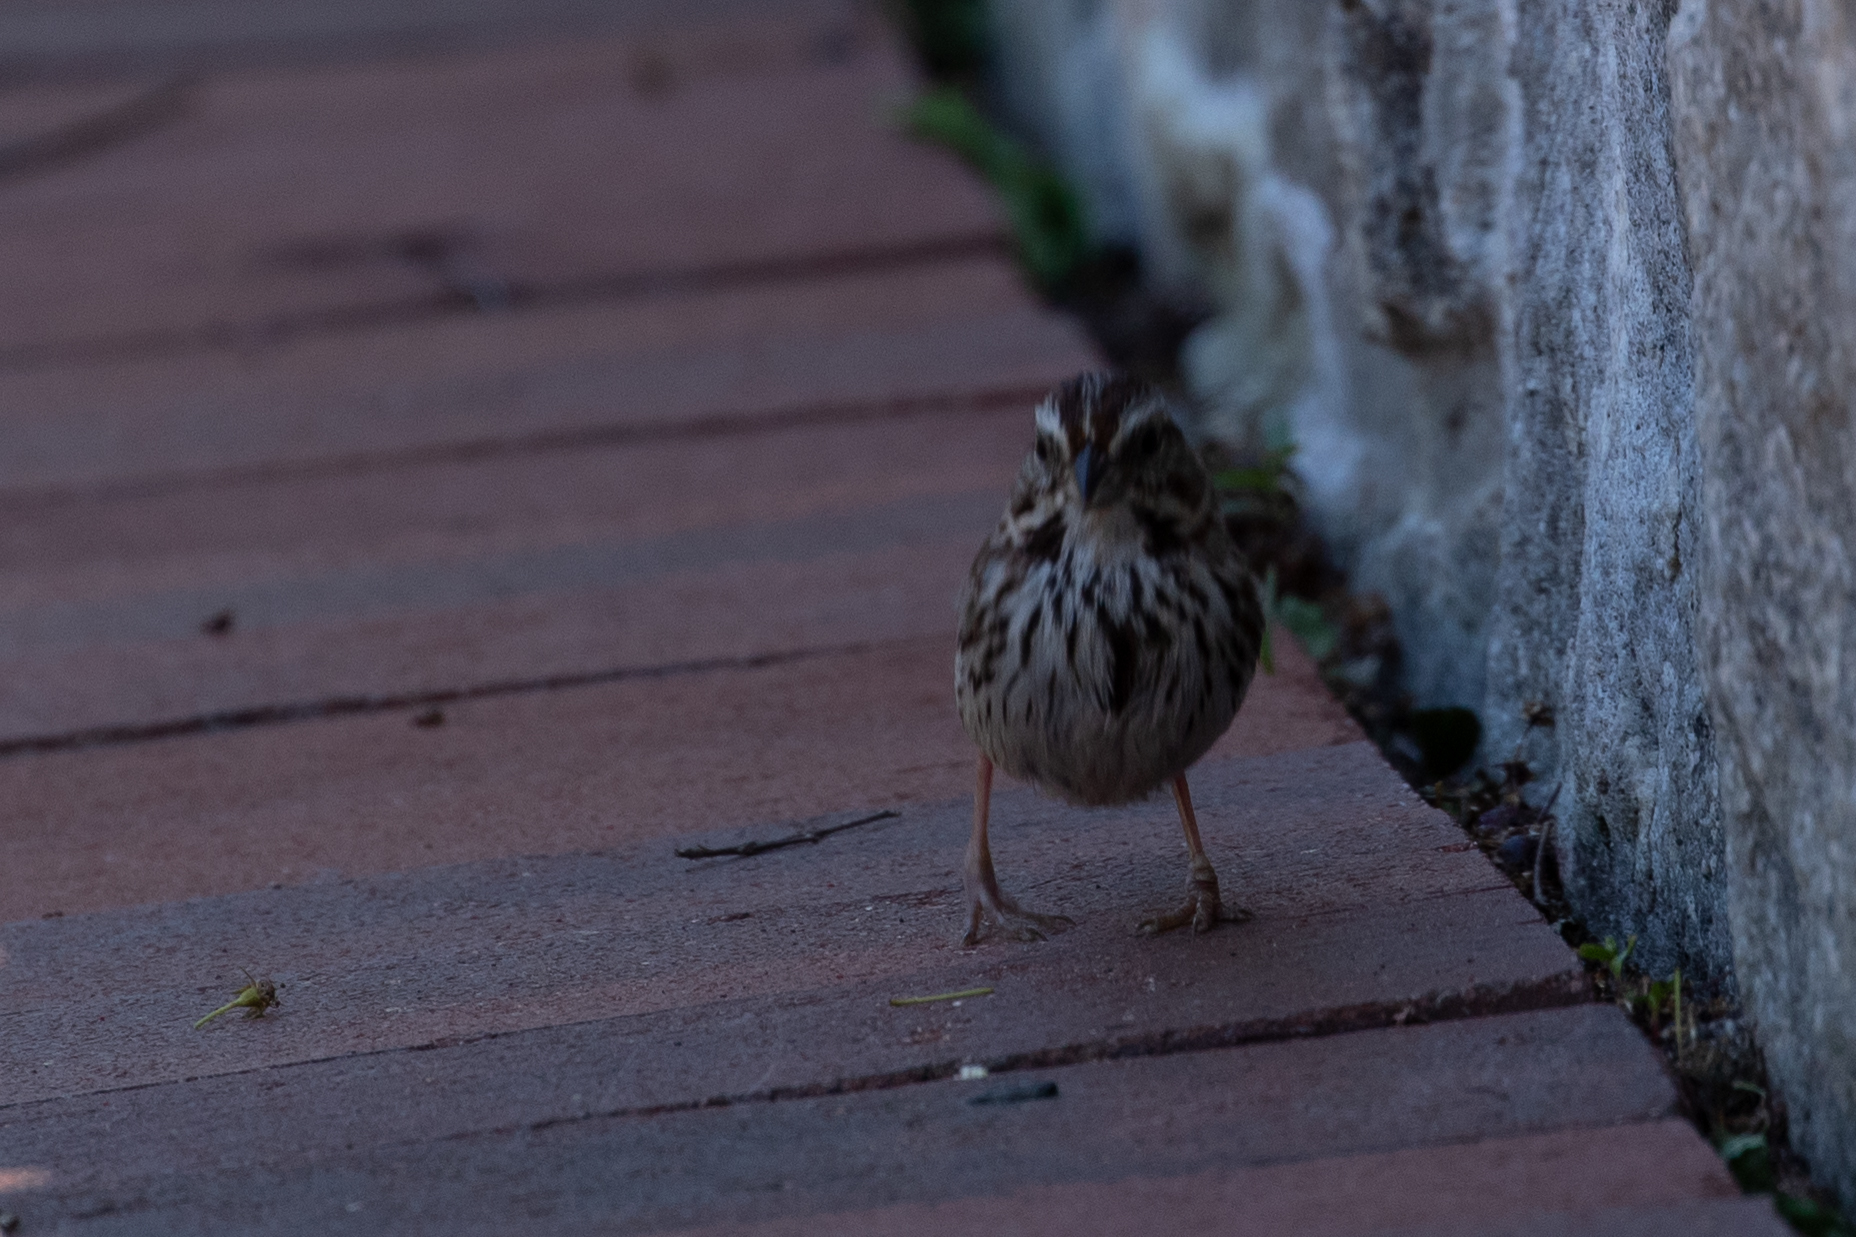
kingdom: Animalia
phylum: Chordata
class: Aves
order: Passeriformes
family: Passerellidae
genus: Melospiza
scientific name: Melospiza melodia
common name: Song sparrow
